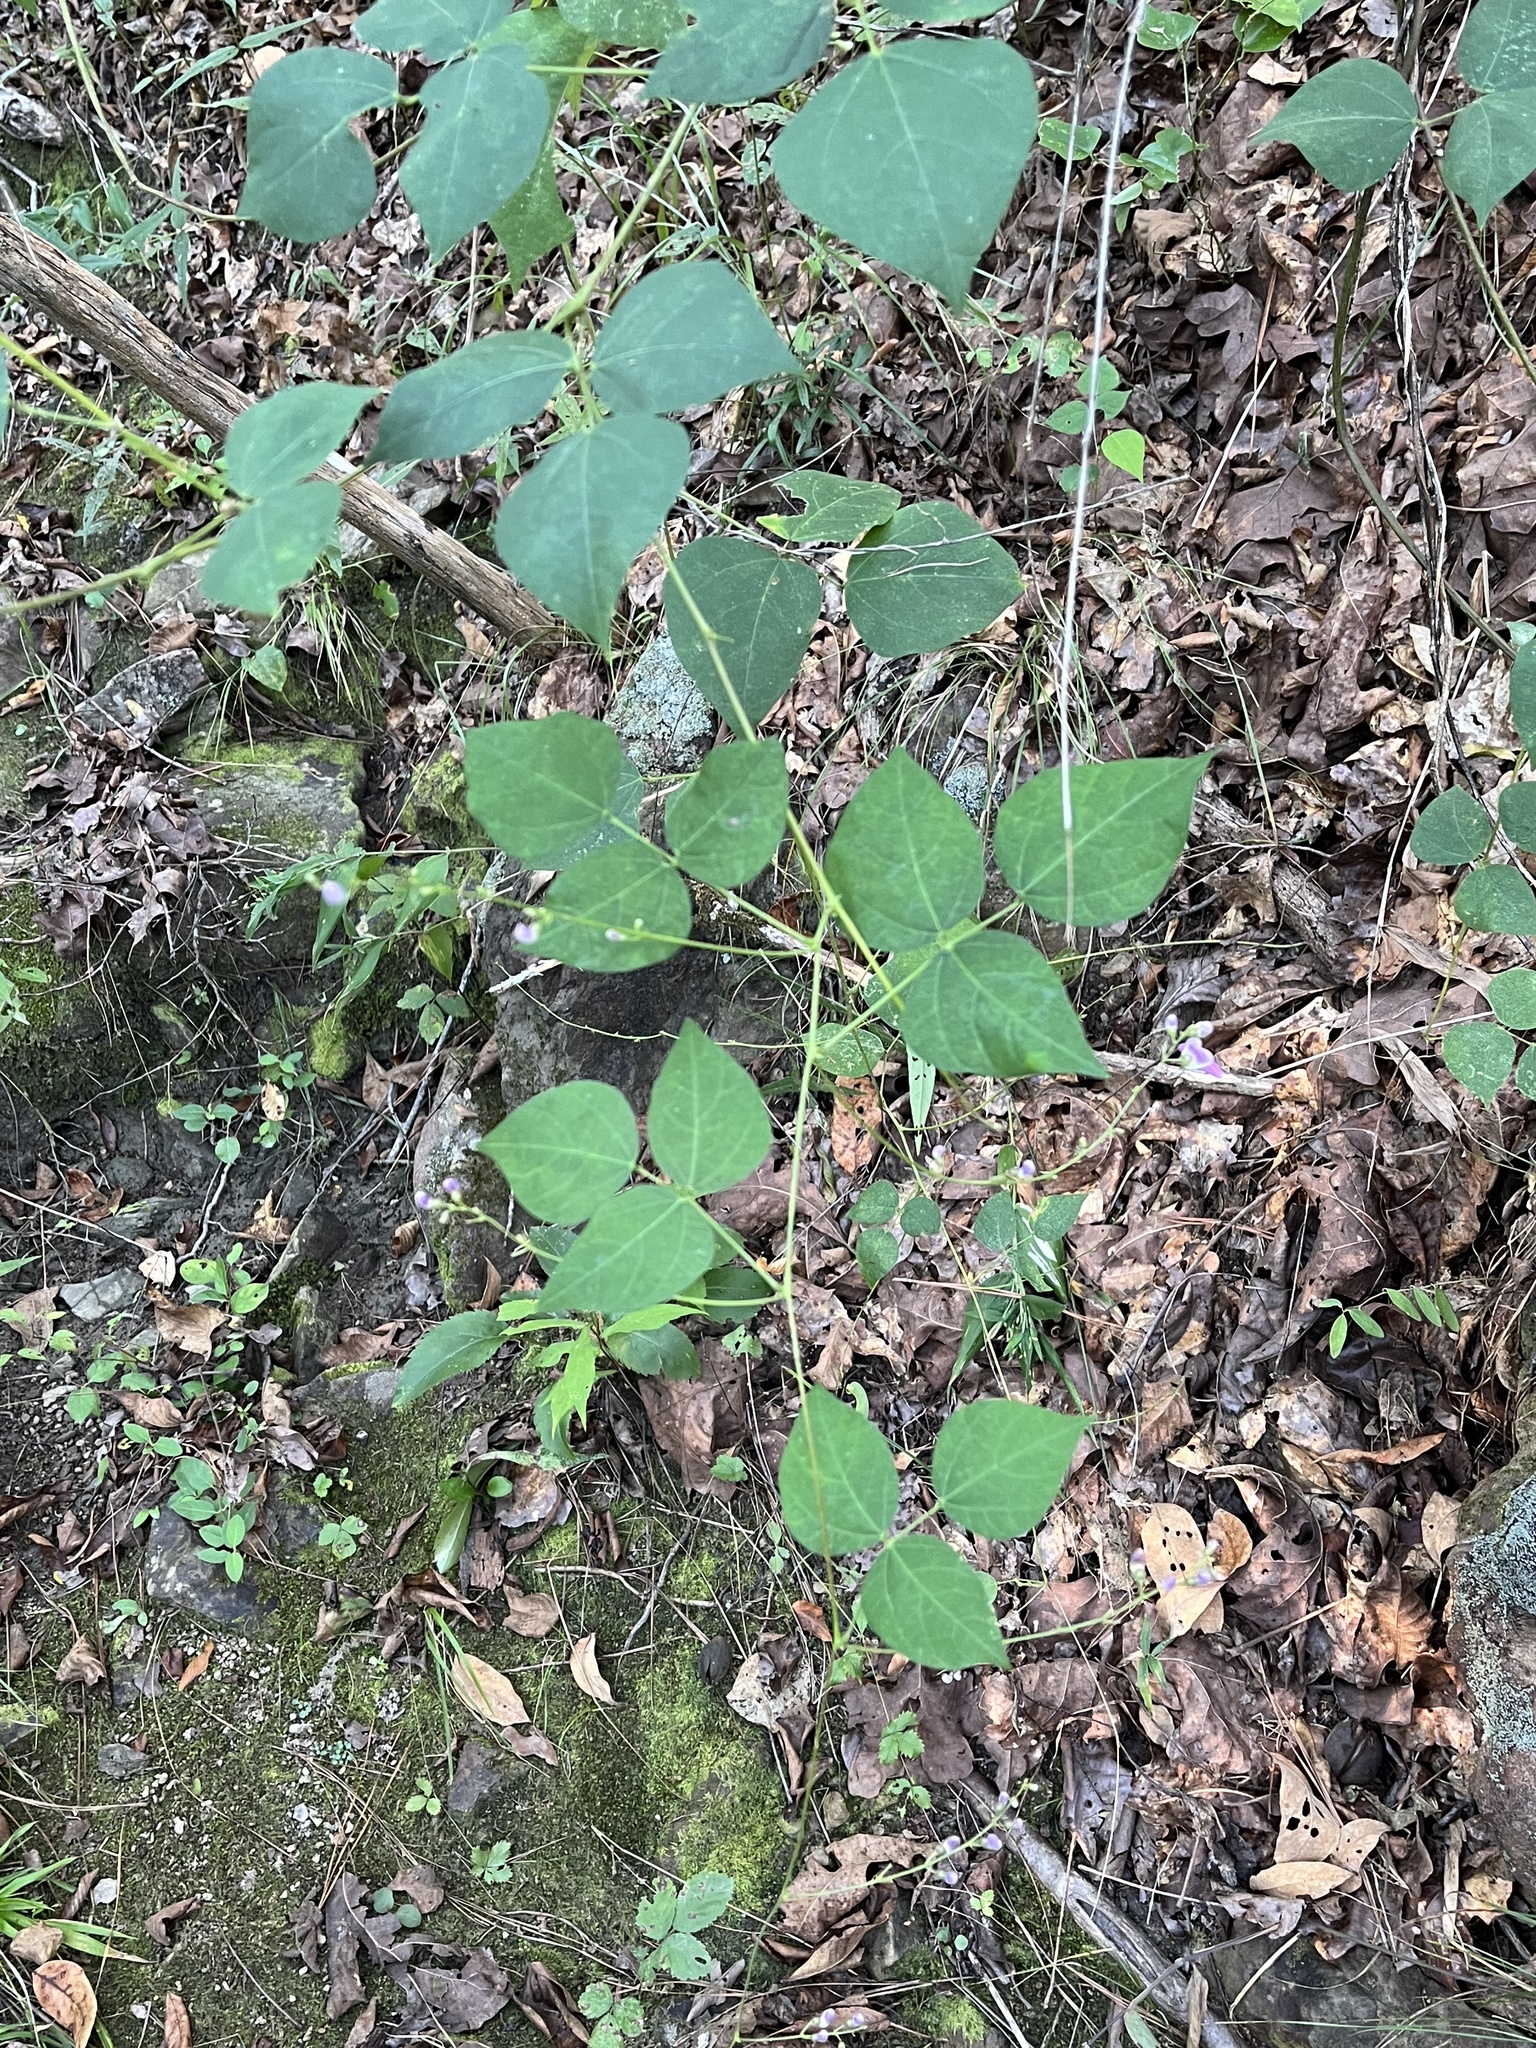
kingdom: Plantae
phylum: Tracheophyta
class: Magnoliopsida
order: Fabales
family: Fabaceae
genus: Phaseolus
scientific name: Phaseolus polystachios
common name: Thicket bean
